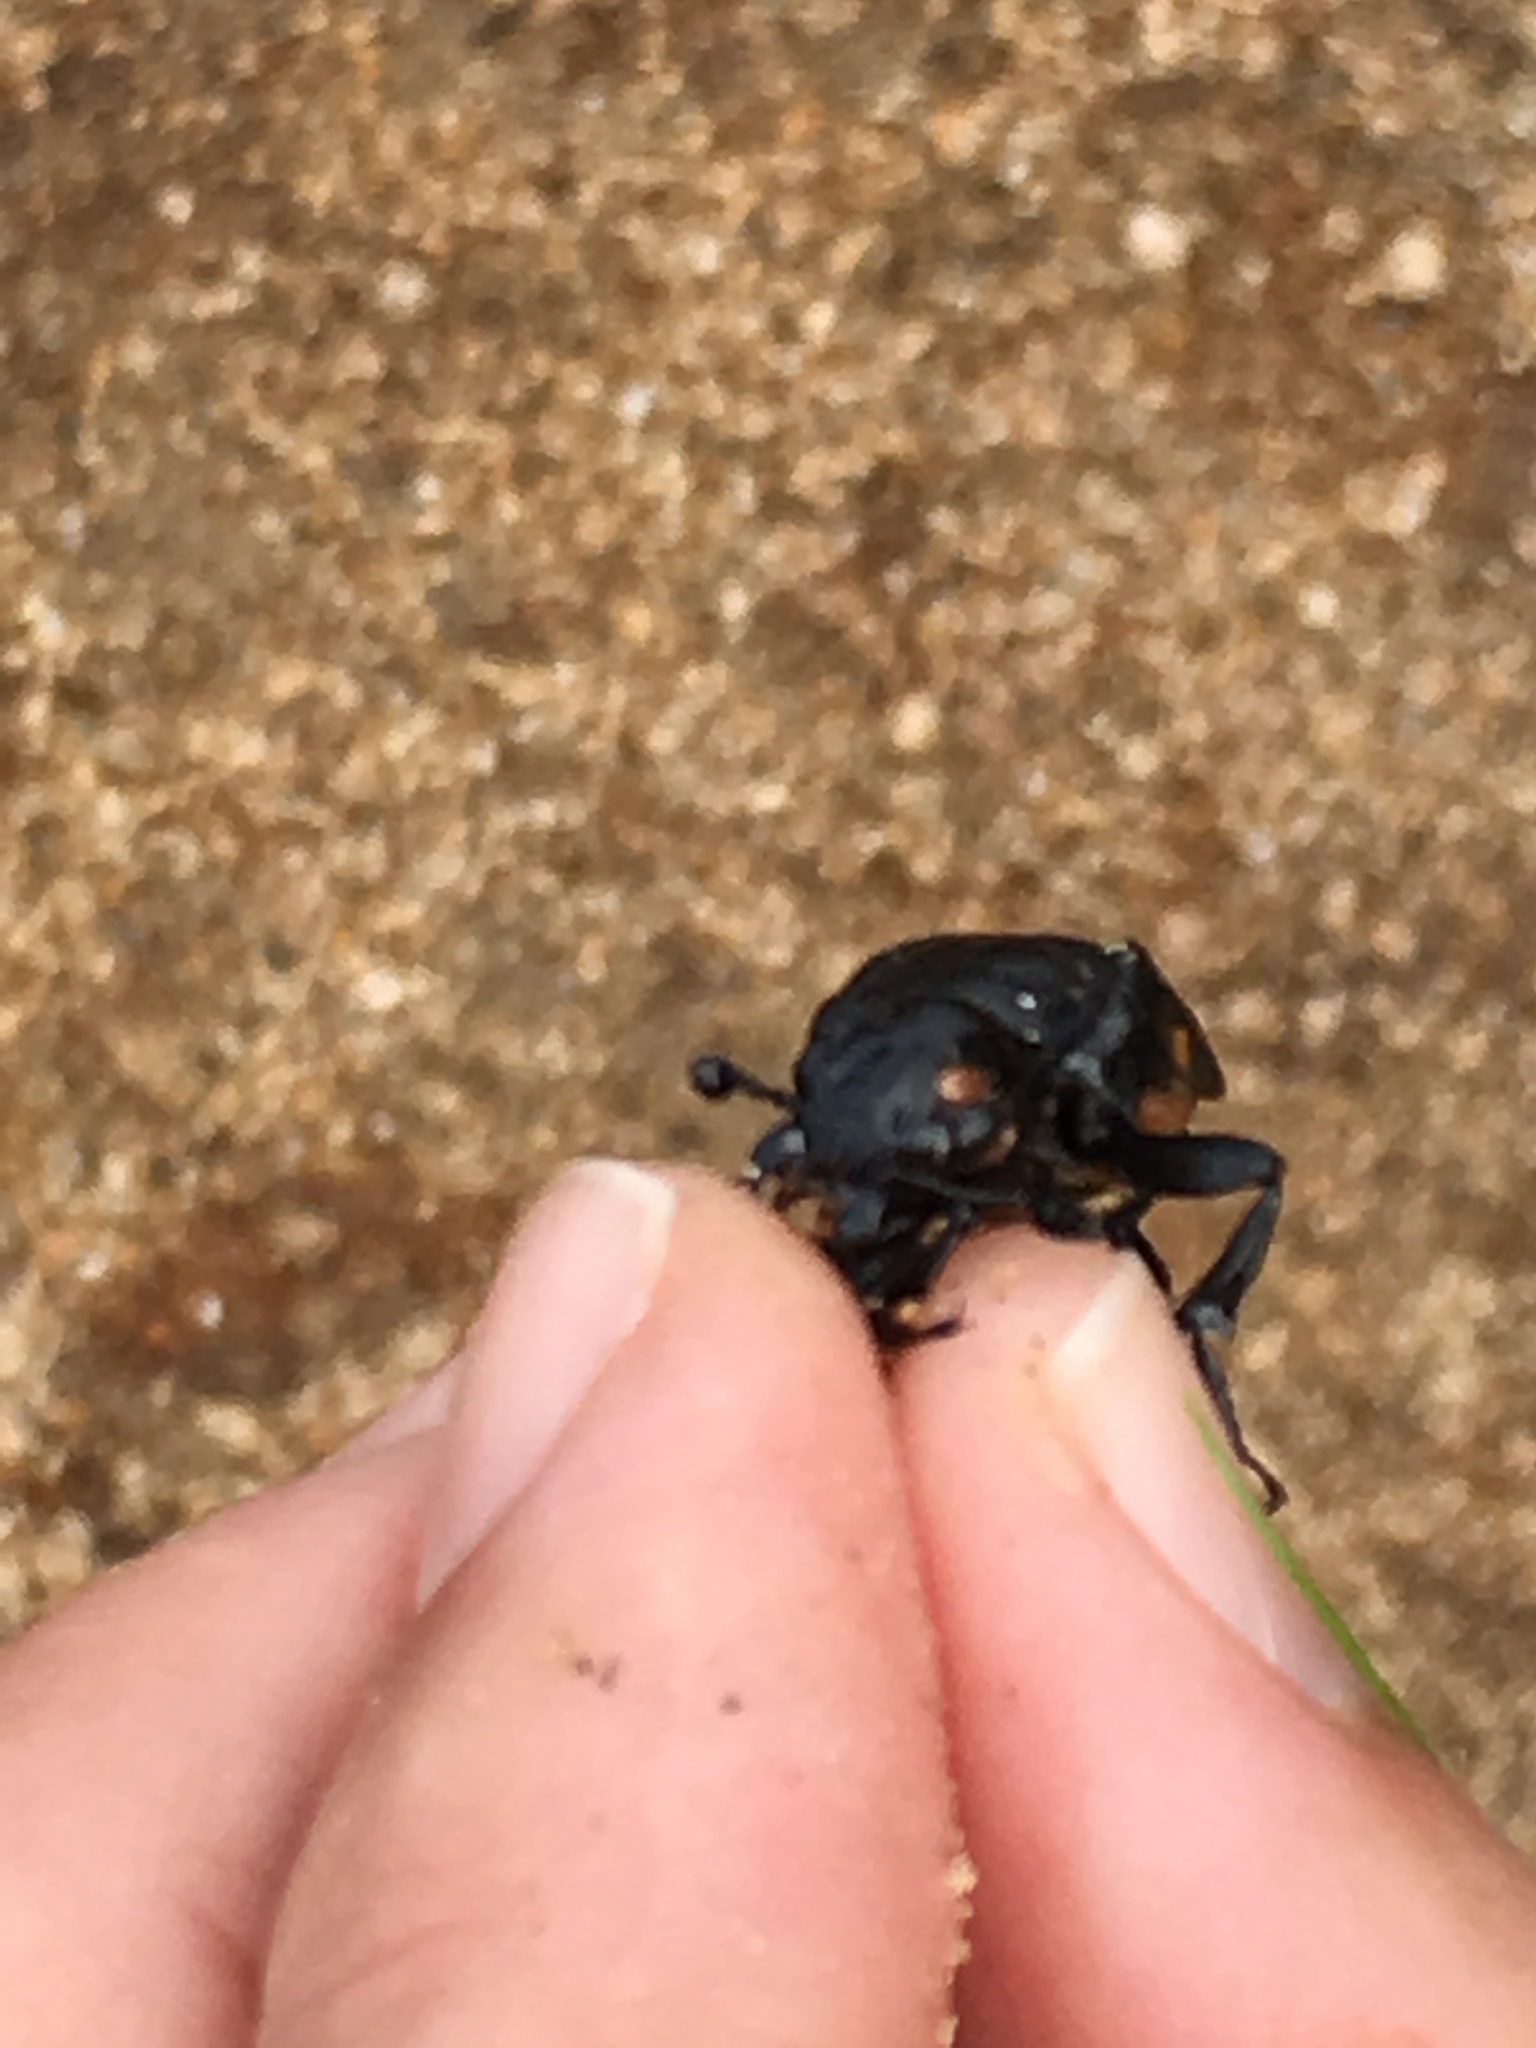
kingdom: Animalia
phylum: Arthropoda
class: Insecta
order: Coleoptera
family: Staphylinidae
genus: Nicrophorus
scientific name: Nicrophorus defodiens
